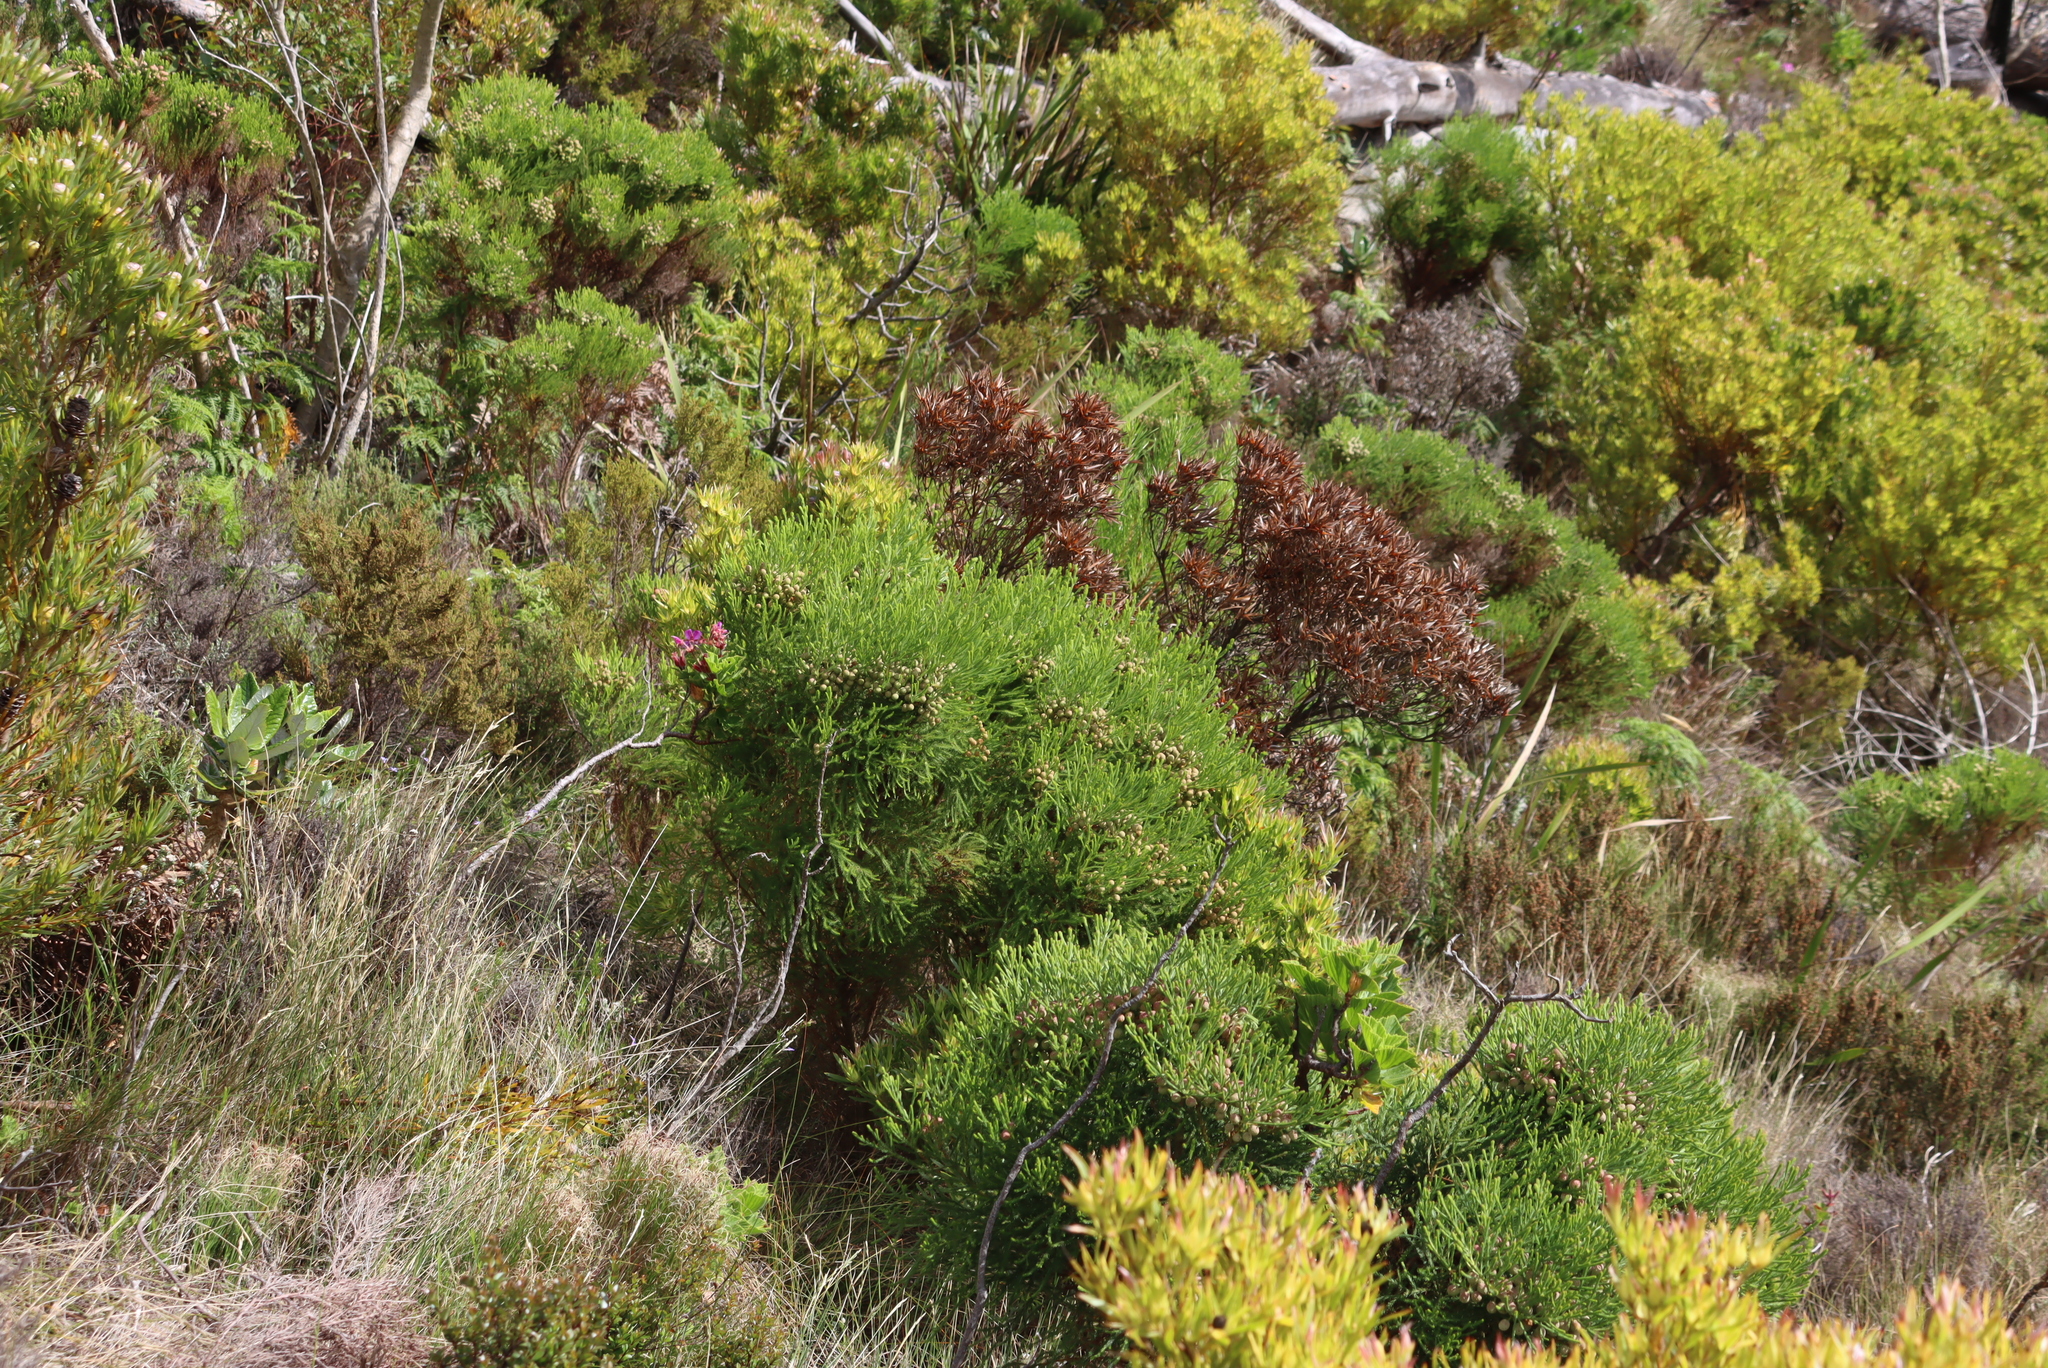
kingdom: Plantae
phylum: Tracheophyta
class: Magnoliopsida
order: Bruniales
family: Bruniaceae
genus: Berzelia
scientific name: Berzelia lanuginosa
